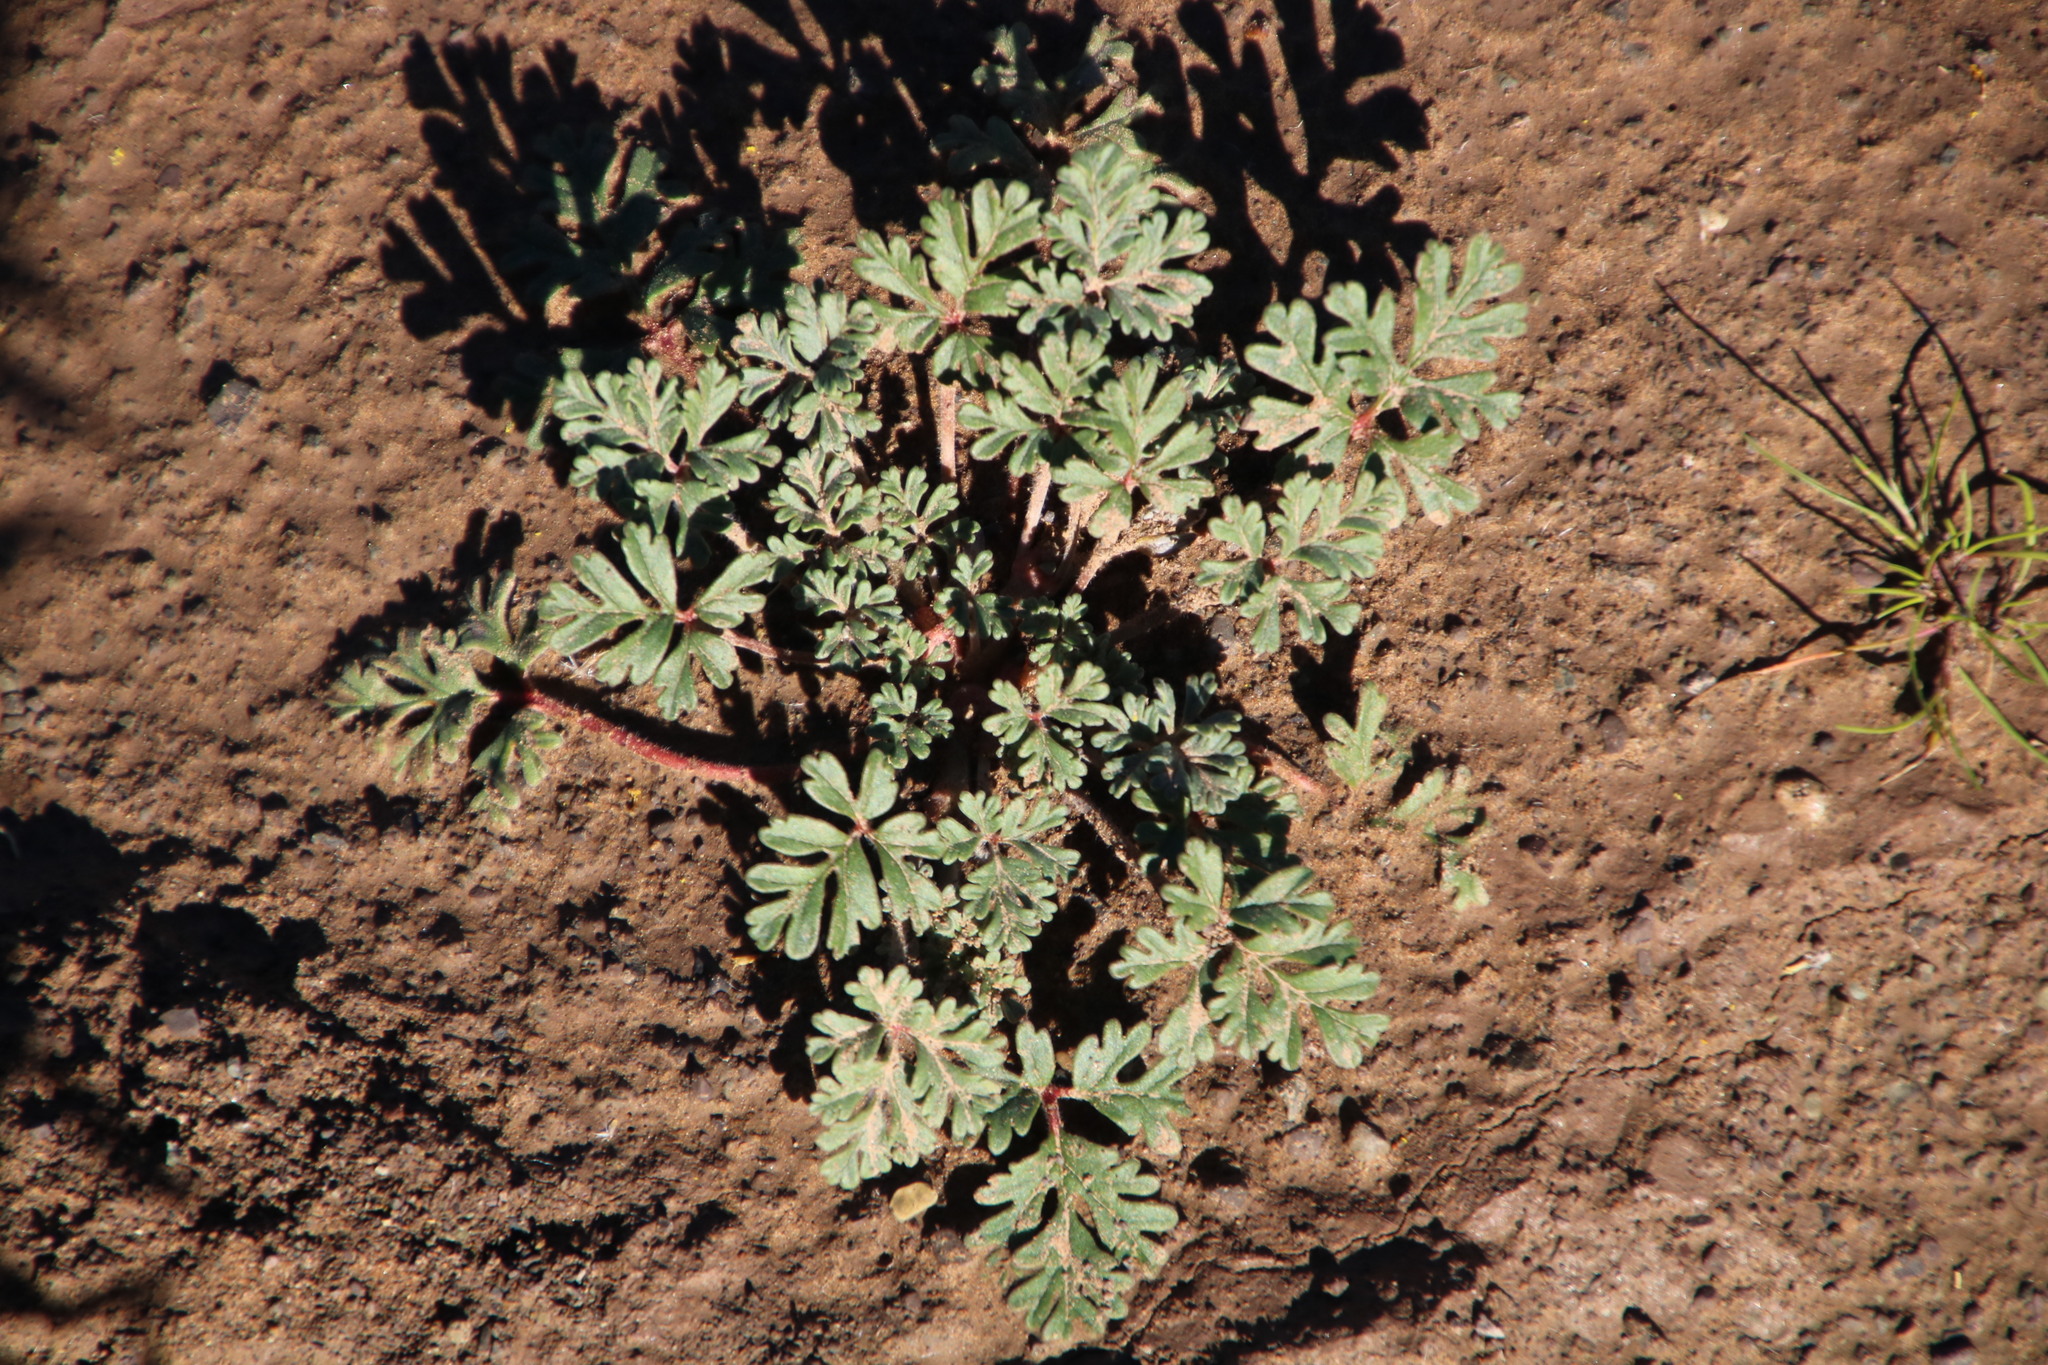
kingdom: Plantae
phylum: Tracheophyta
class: Magnoliopsida
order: Geraniales
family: Geraniaceae
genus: Pelargonium
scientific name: Pelargonium minimum
